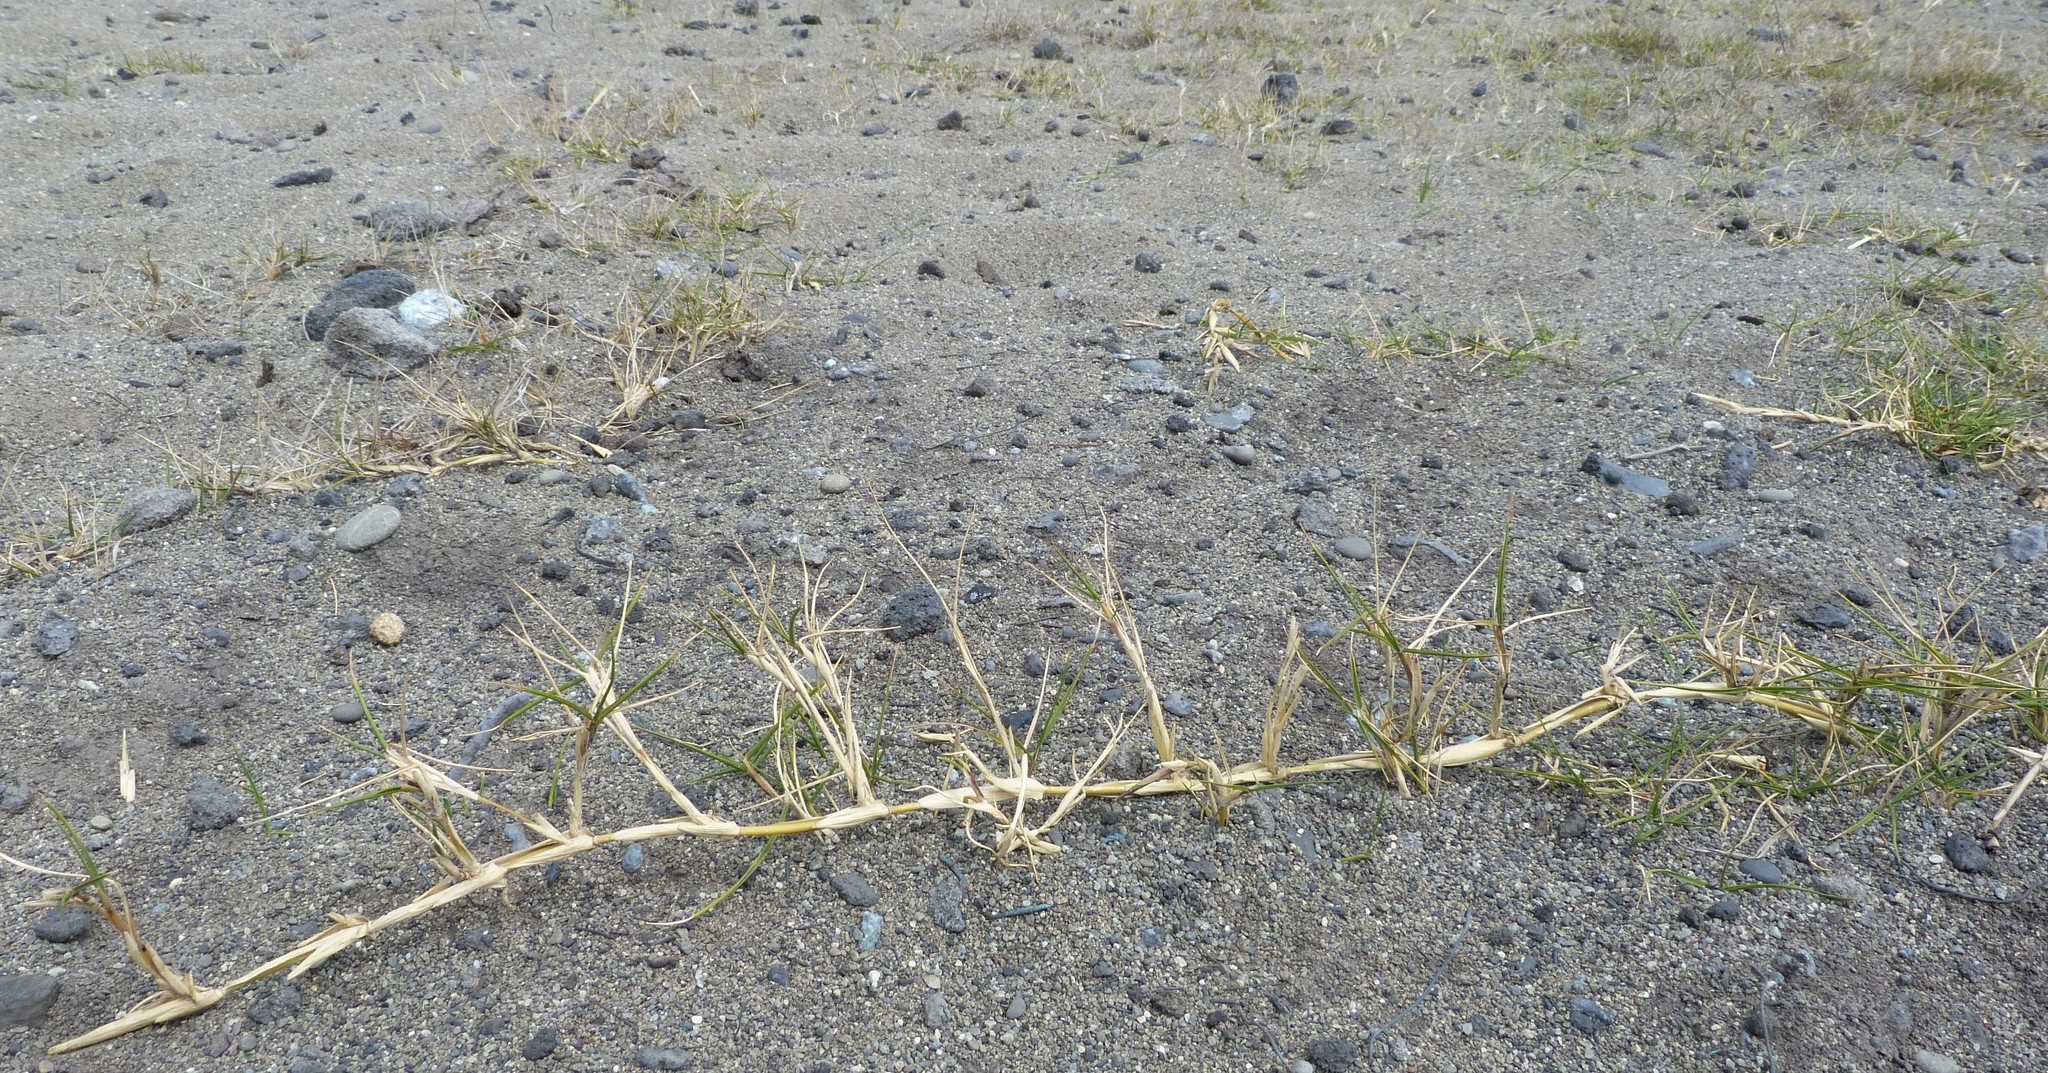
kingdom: Plantae
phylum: Tracheophyta
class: Liliopsida
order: Poales
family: Poaceae
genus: Zoysia
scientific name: Zoysia minima
